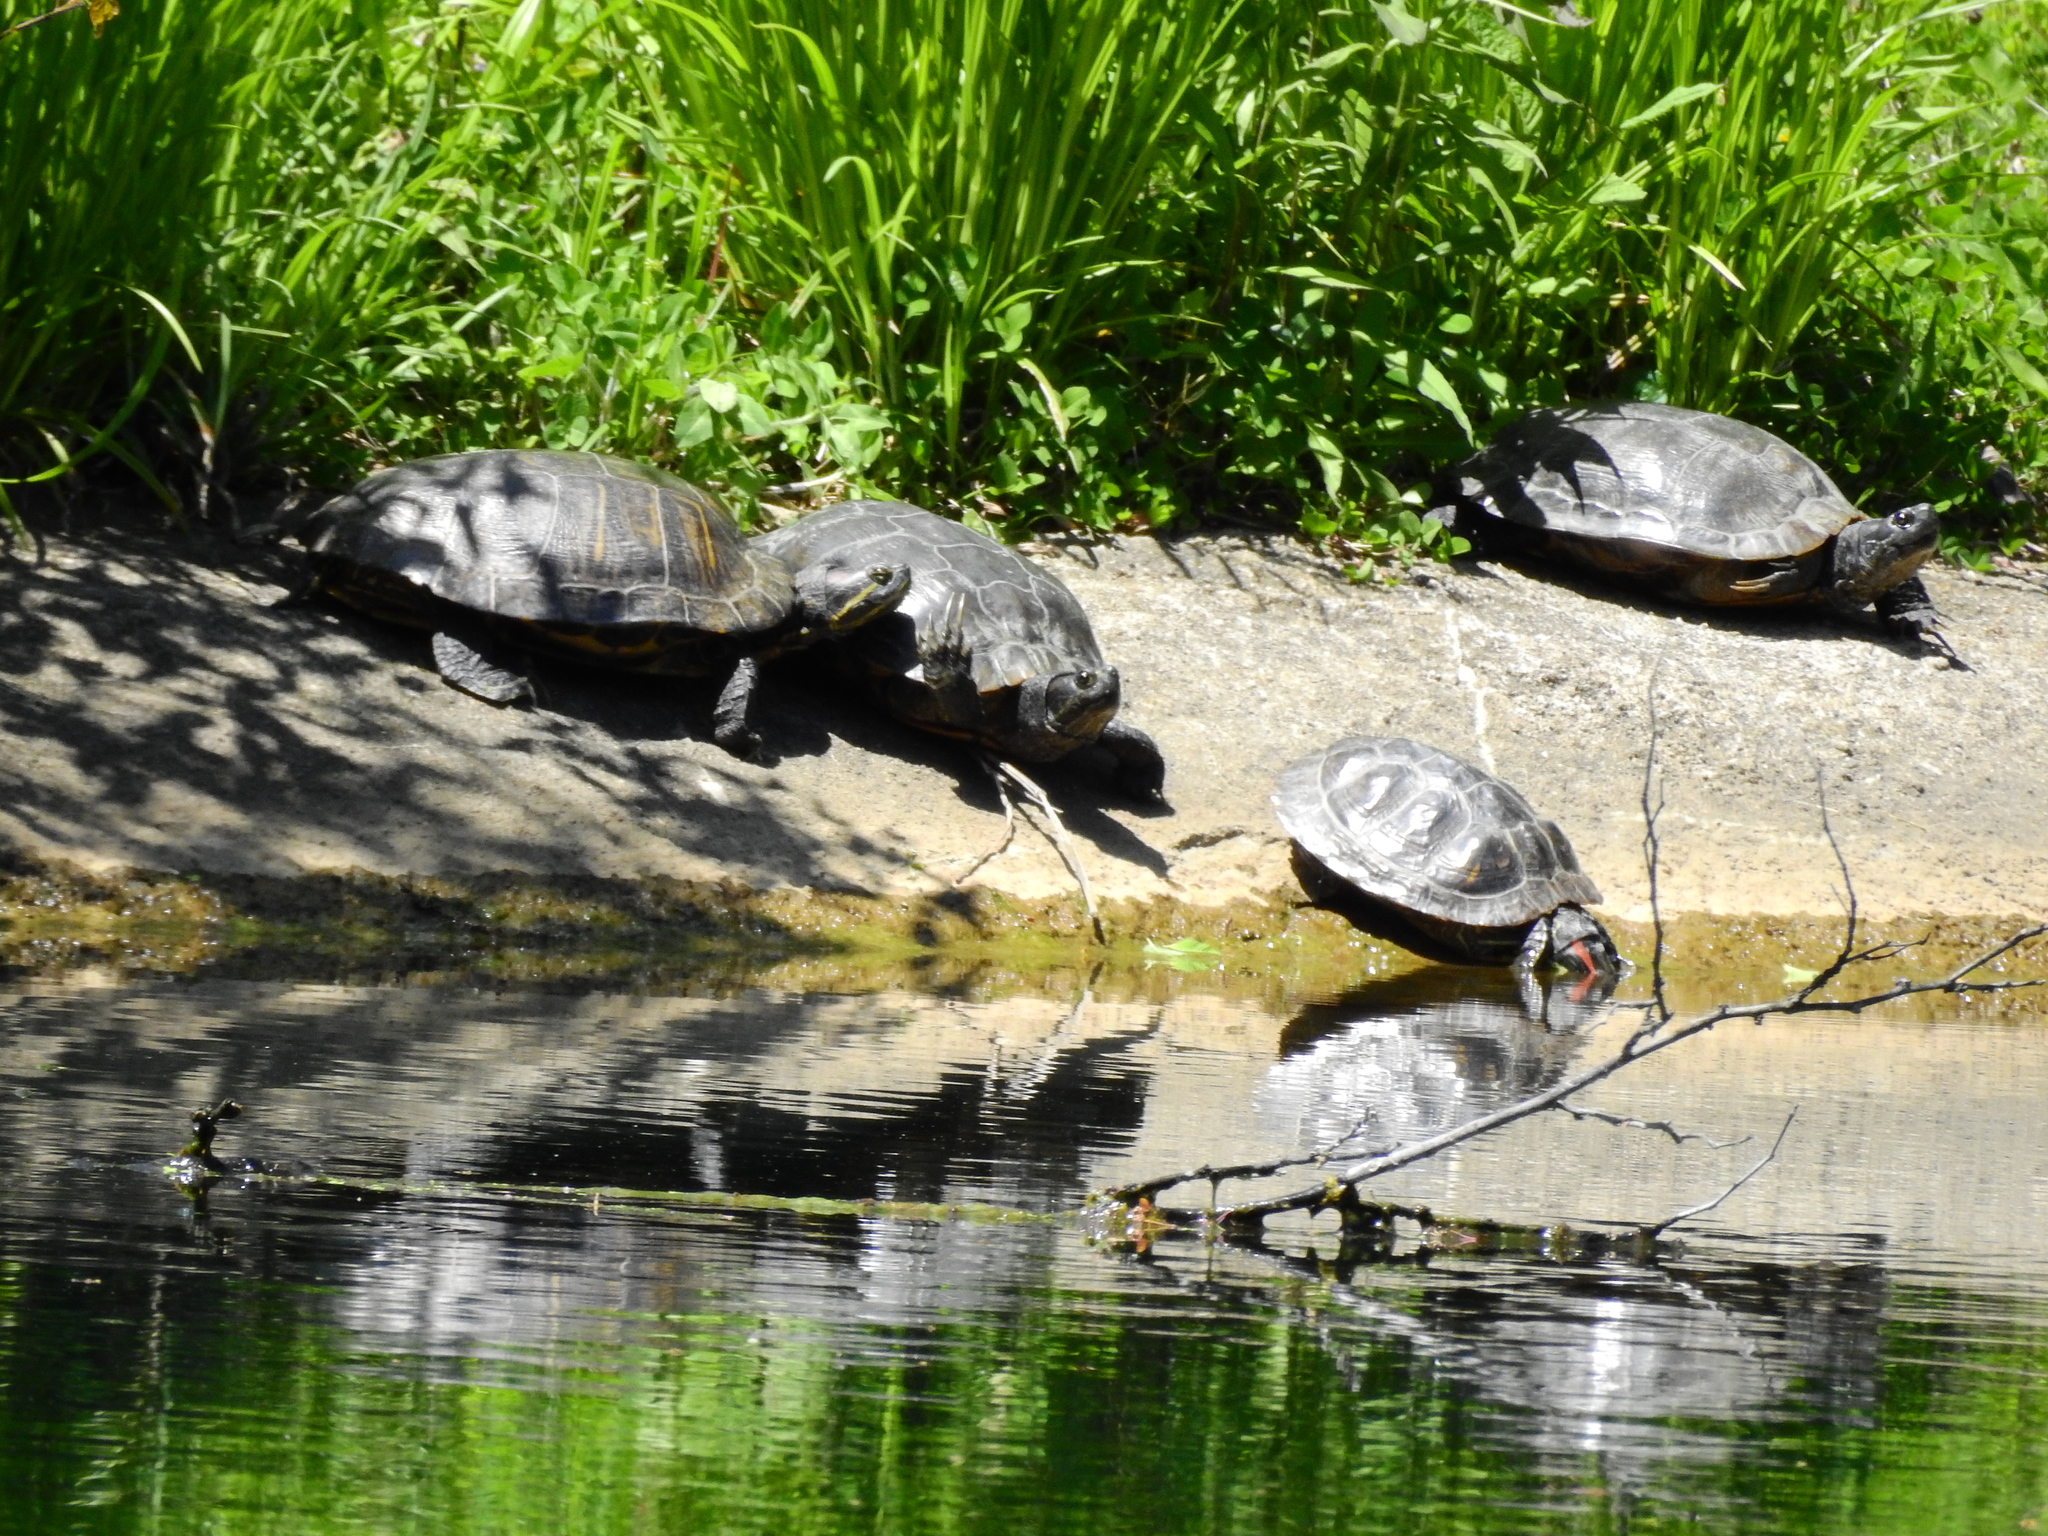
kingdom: Animalia
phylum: Chordata
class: Testudines
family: Emydidae
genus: Trachemys
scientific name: Trachemys scripta
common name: Slider
